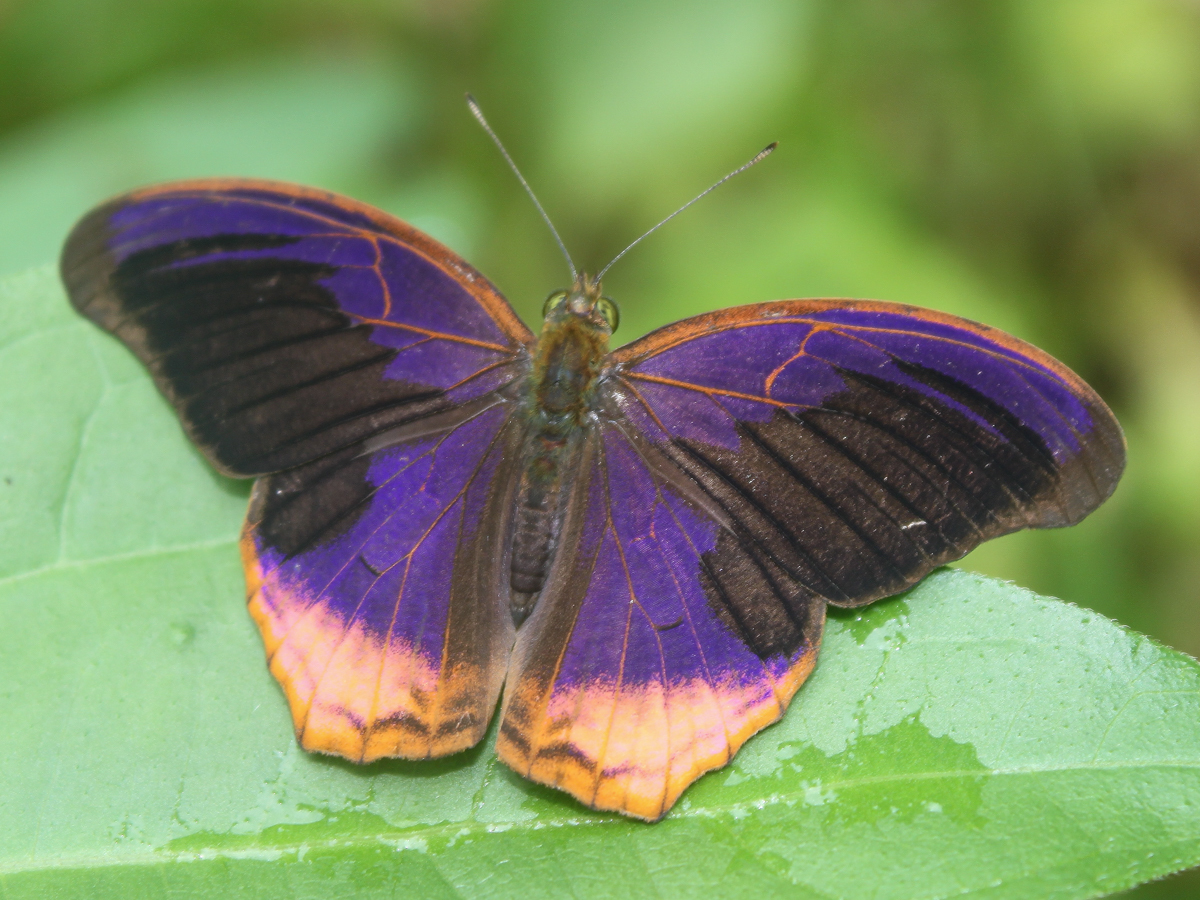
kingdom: Animalia
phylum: Arthropoda
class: Insecta
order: Lepidoptera
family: Nymphalidae
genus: Terinos
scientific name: Terinos terpander
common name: Royal assyrian
